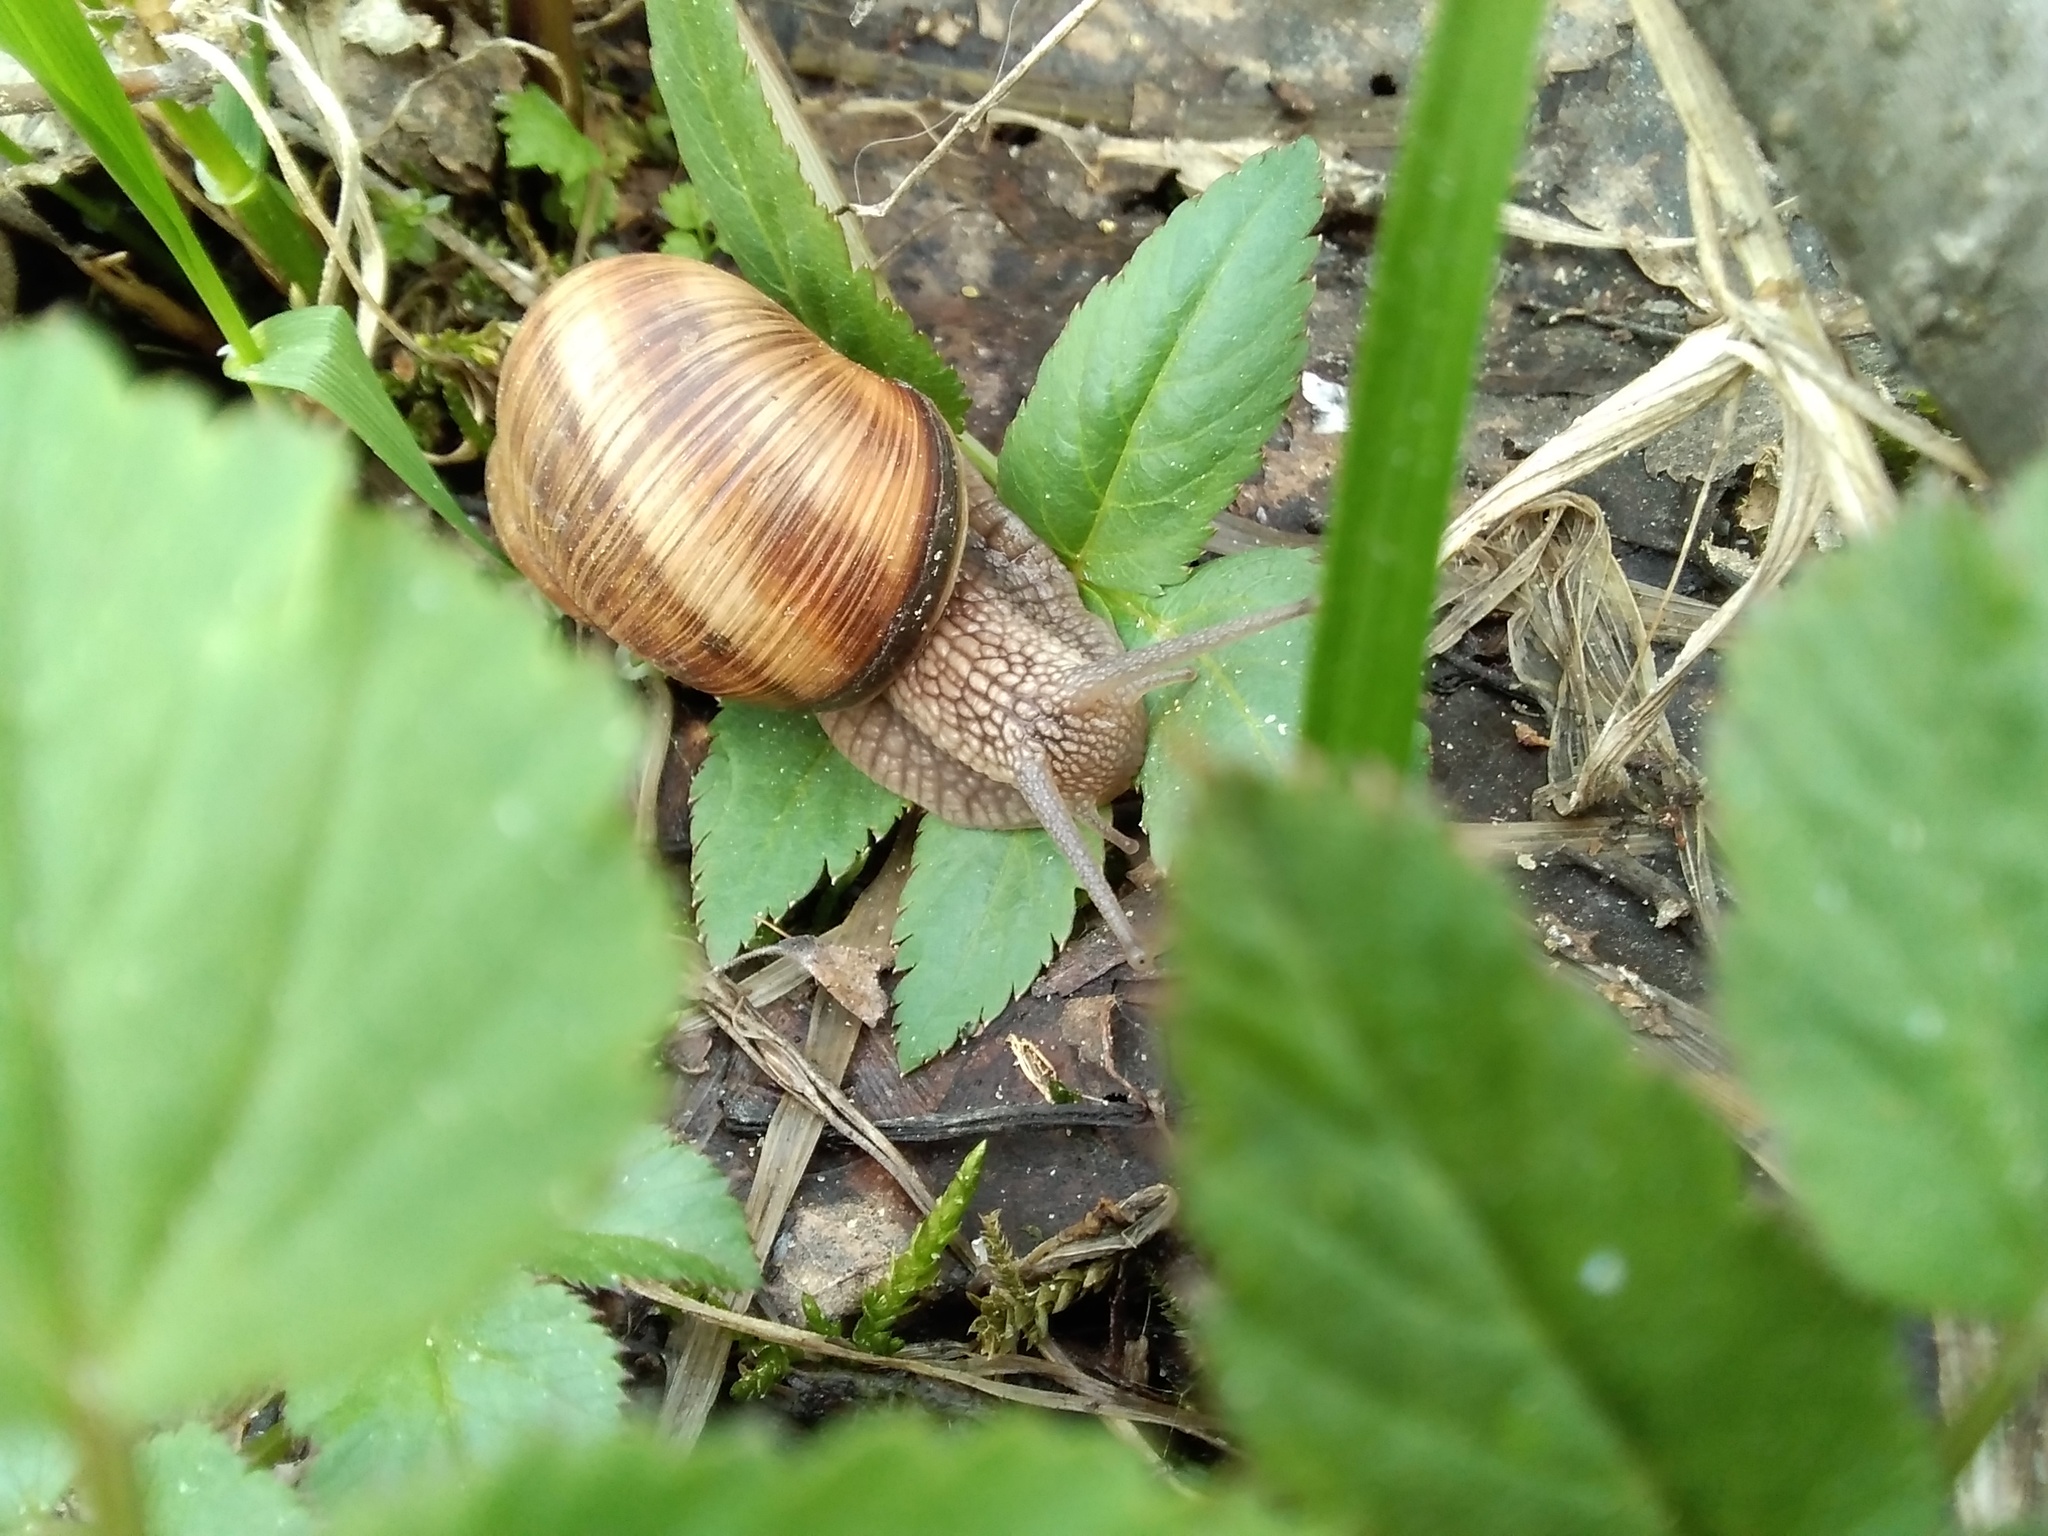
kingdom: Animalia
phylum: Mollusca
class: Gastropoda
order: Stylommatophora
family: Helicidae
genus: Helix
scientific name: Helix pomatia
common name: Roman snail
